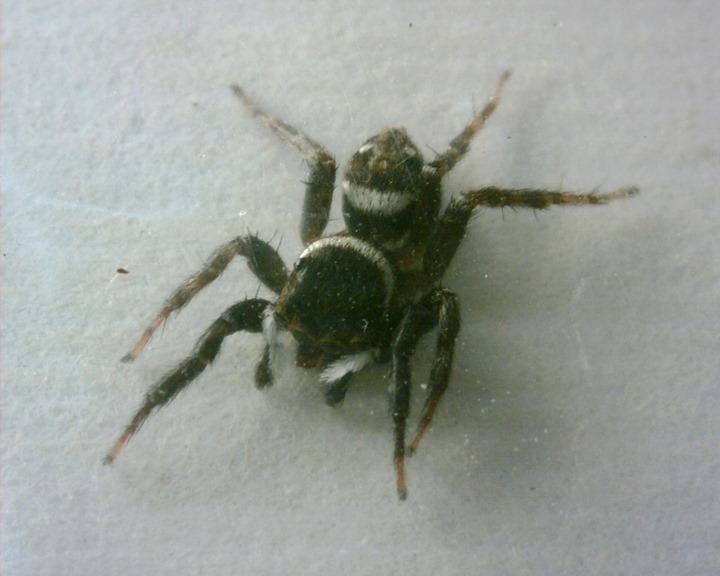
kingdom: Animalia
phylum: Arthropoda
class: Arachnida
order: Araneae
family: Salticidae
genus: Hasarius
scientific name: Hasarius adansoni
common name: Jumping spider
